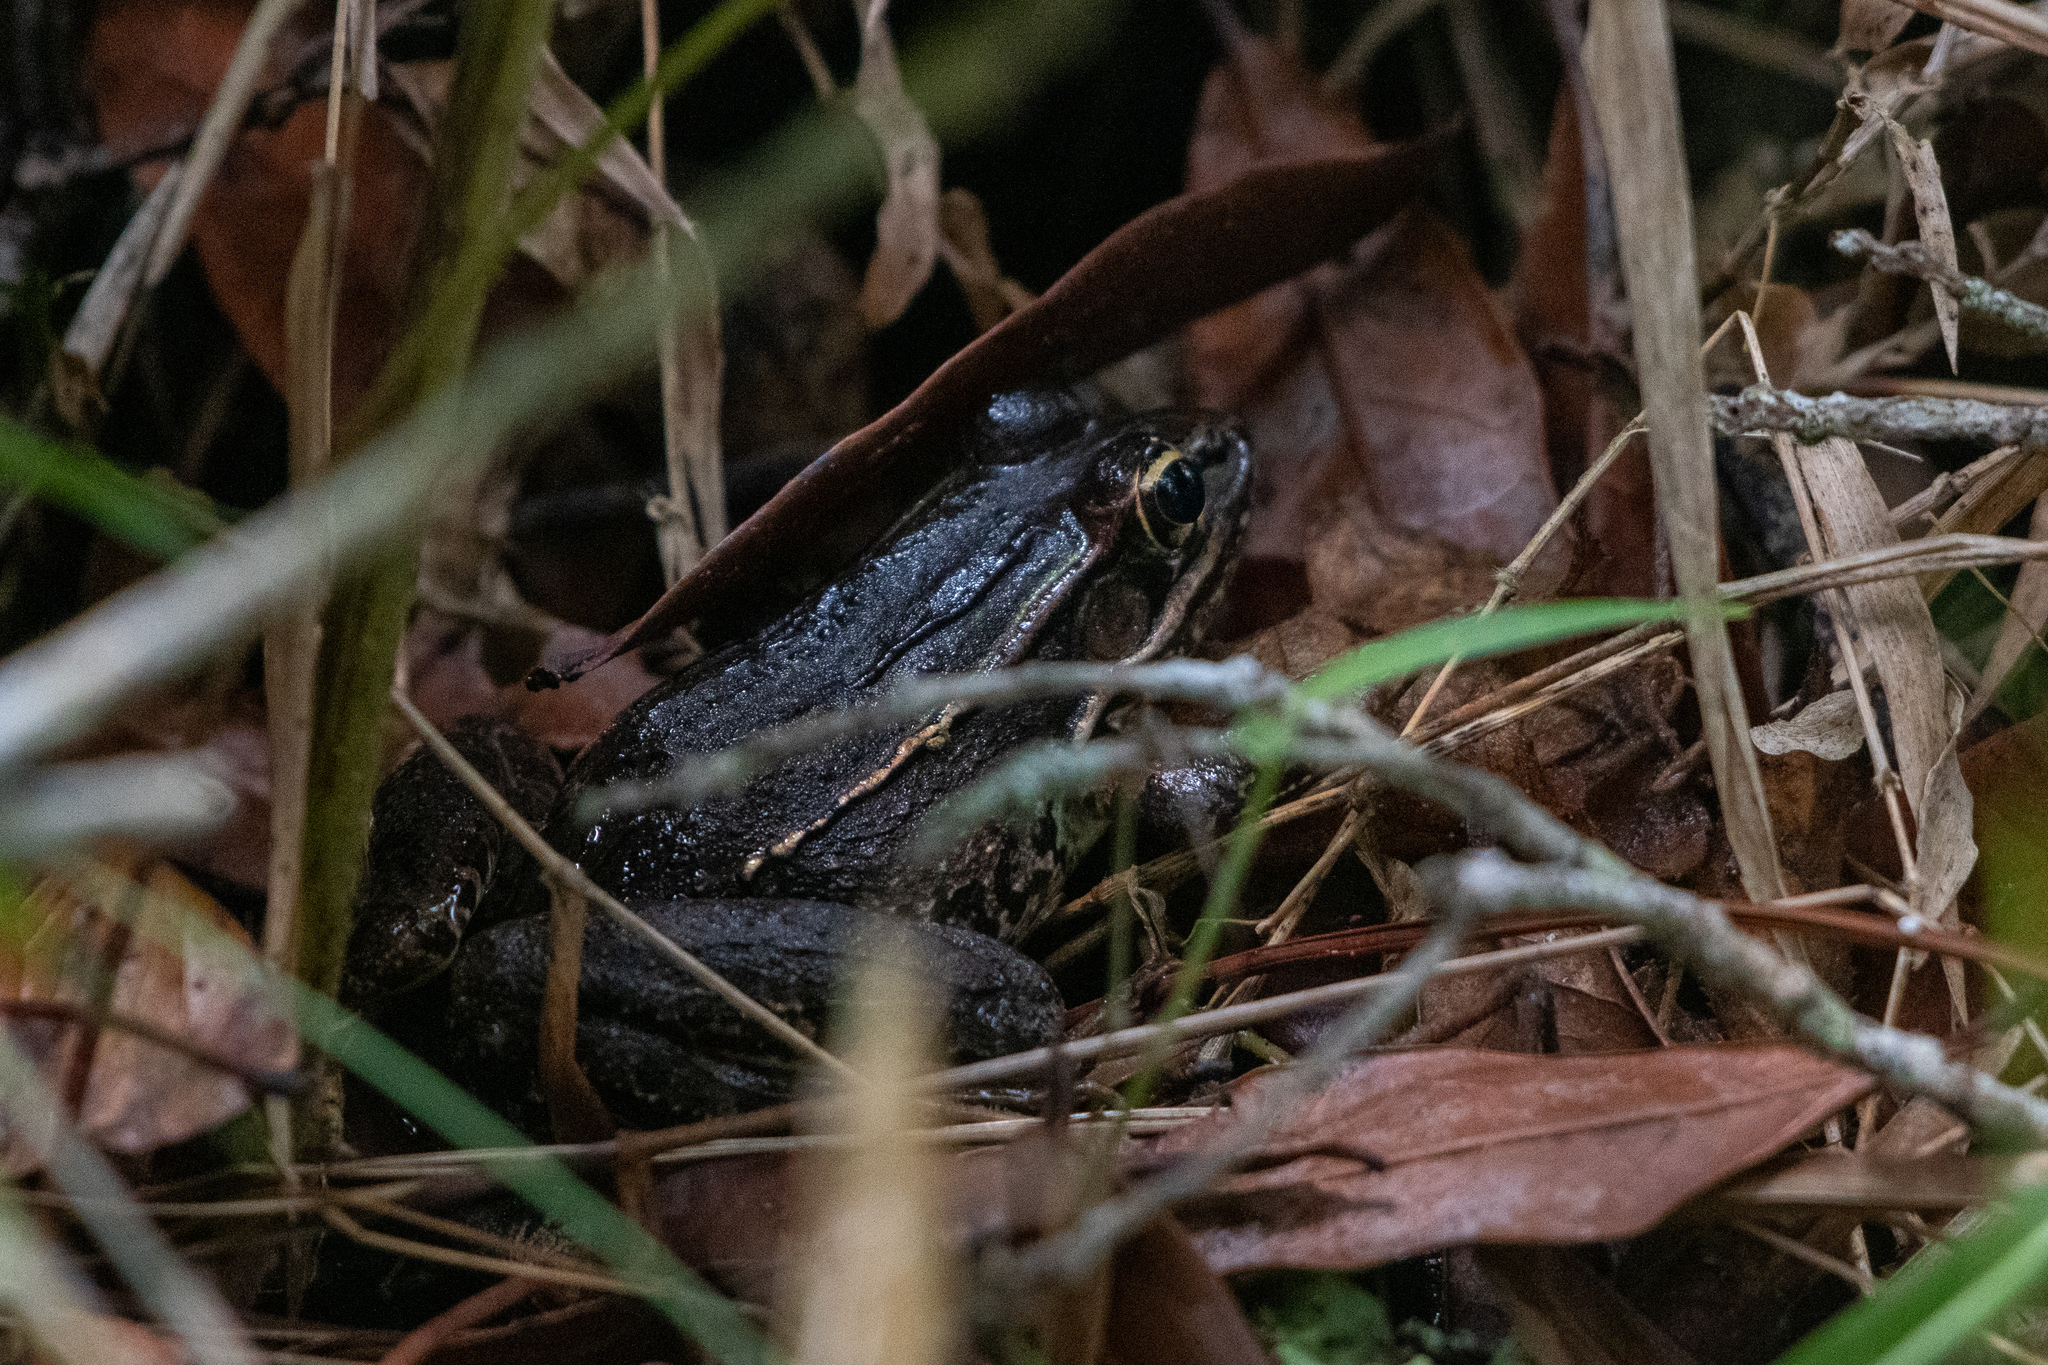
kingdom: Animalia
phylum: Chordata
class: Amphibia
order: Anura
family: Ranidae
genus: Lithobates
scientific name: Lithobates lenca
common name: Lenca leopard frog
